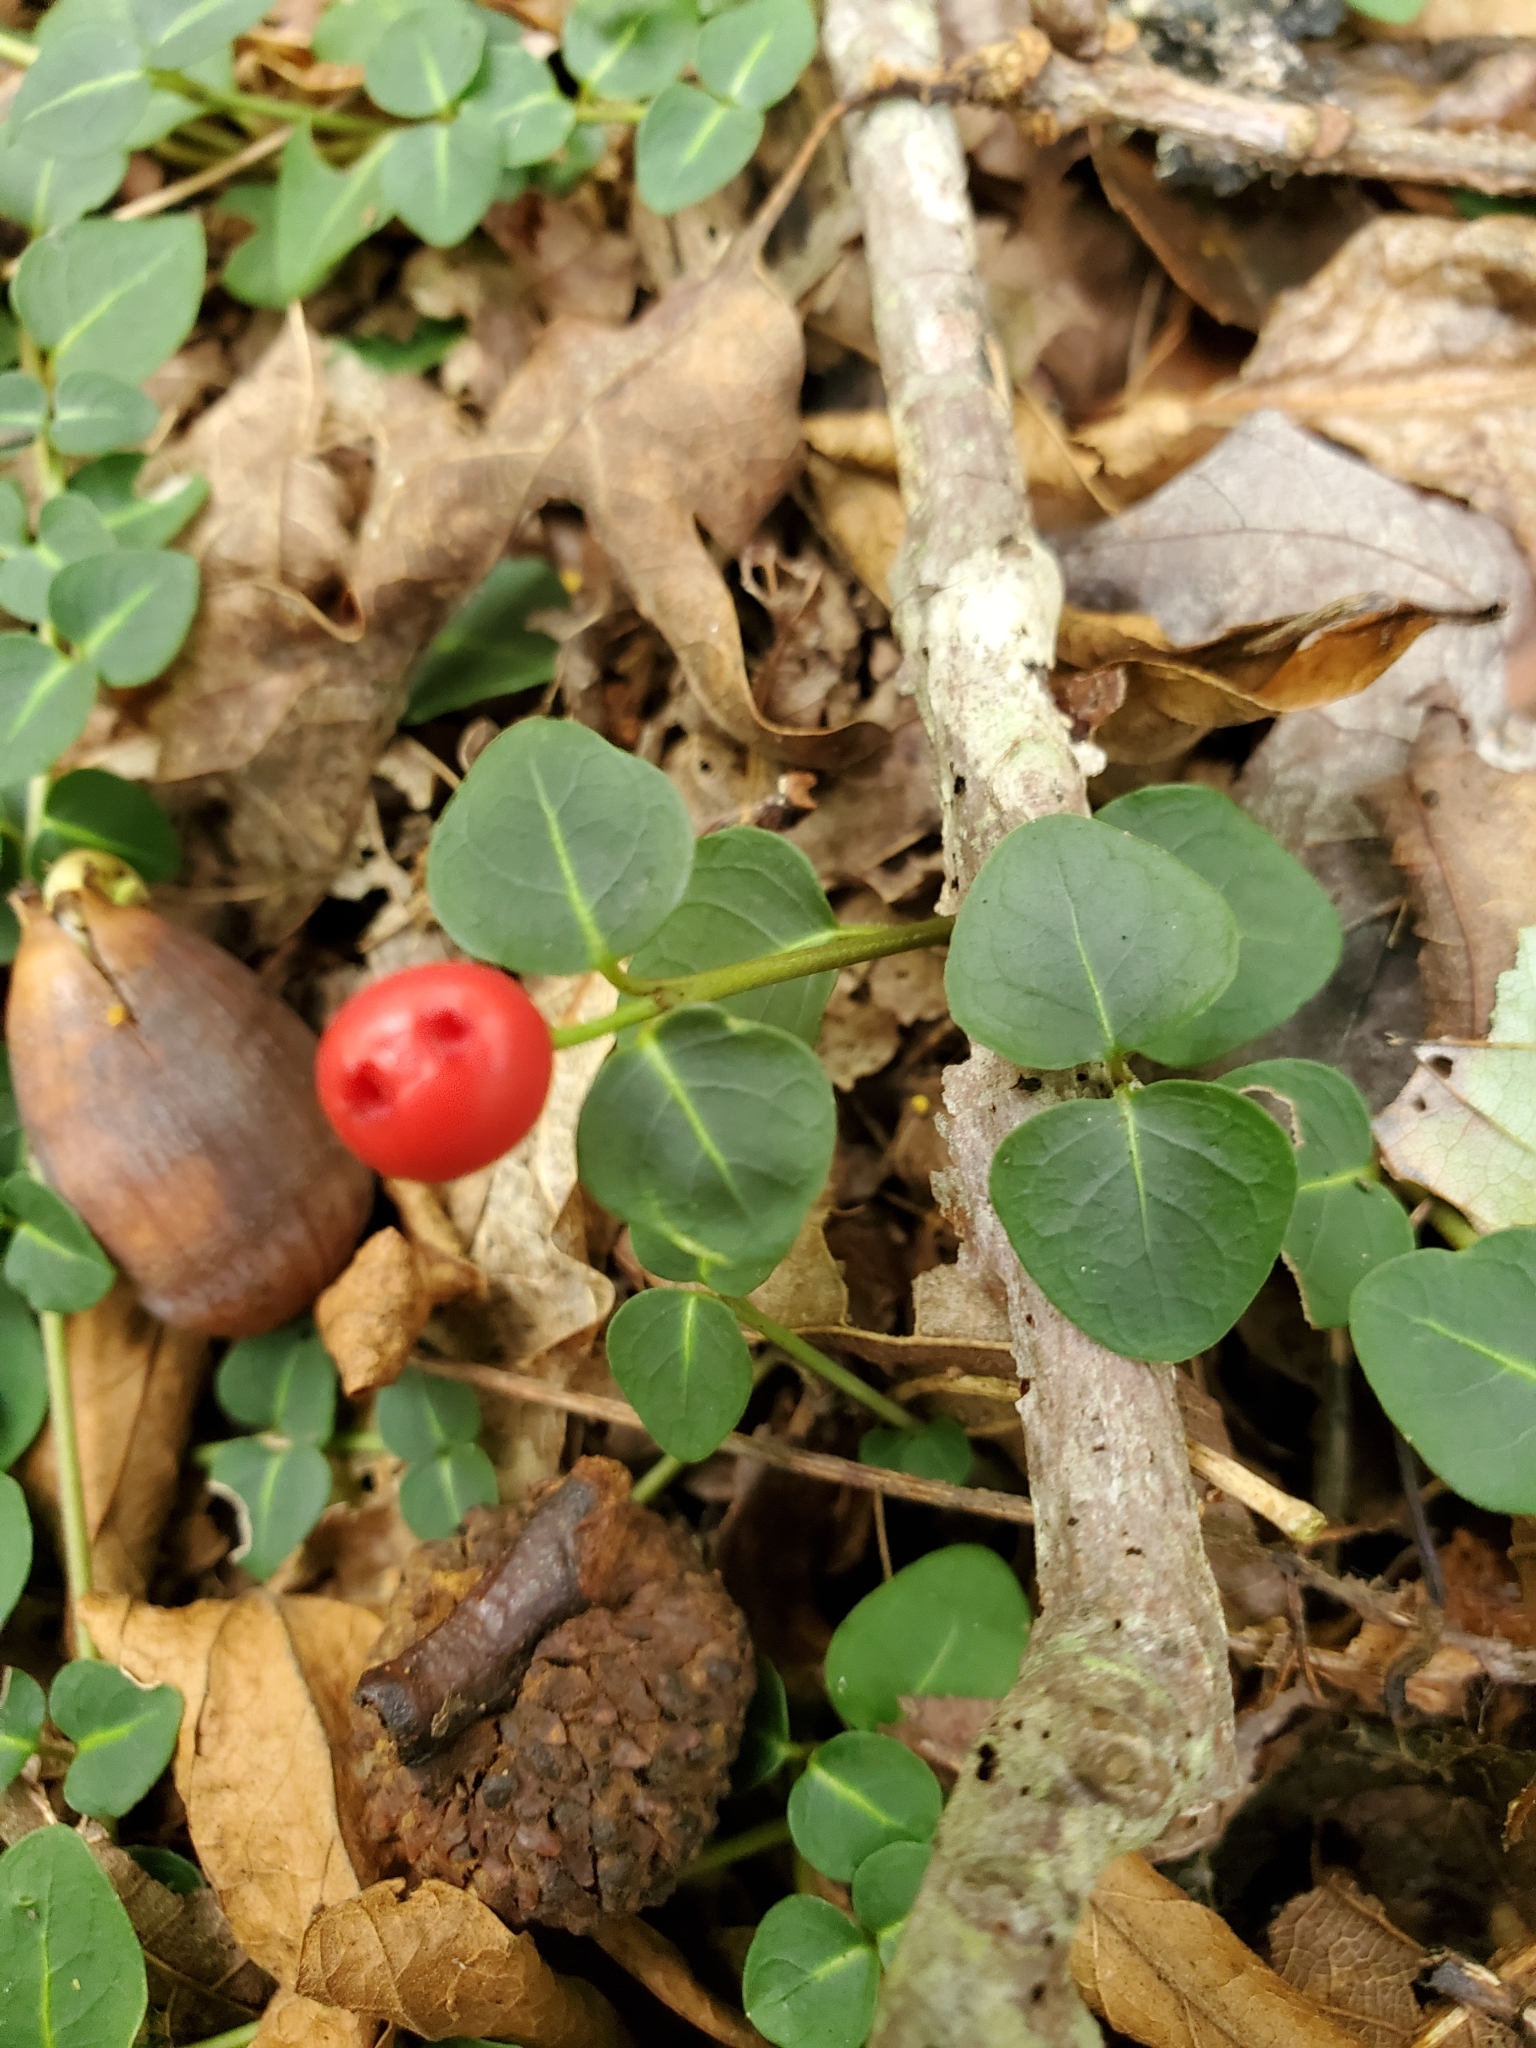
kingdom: Plantae
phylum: Tracheophyta
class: Magnoliopsida
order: Gentianales
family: Rubiaceae
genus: Mitchella
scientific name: Mitchella repens
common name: Partridge-berry
